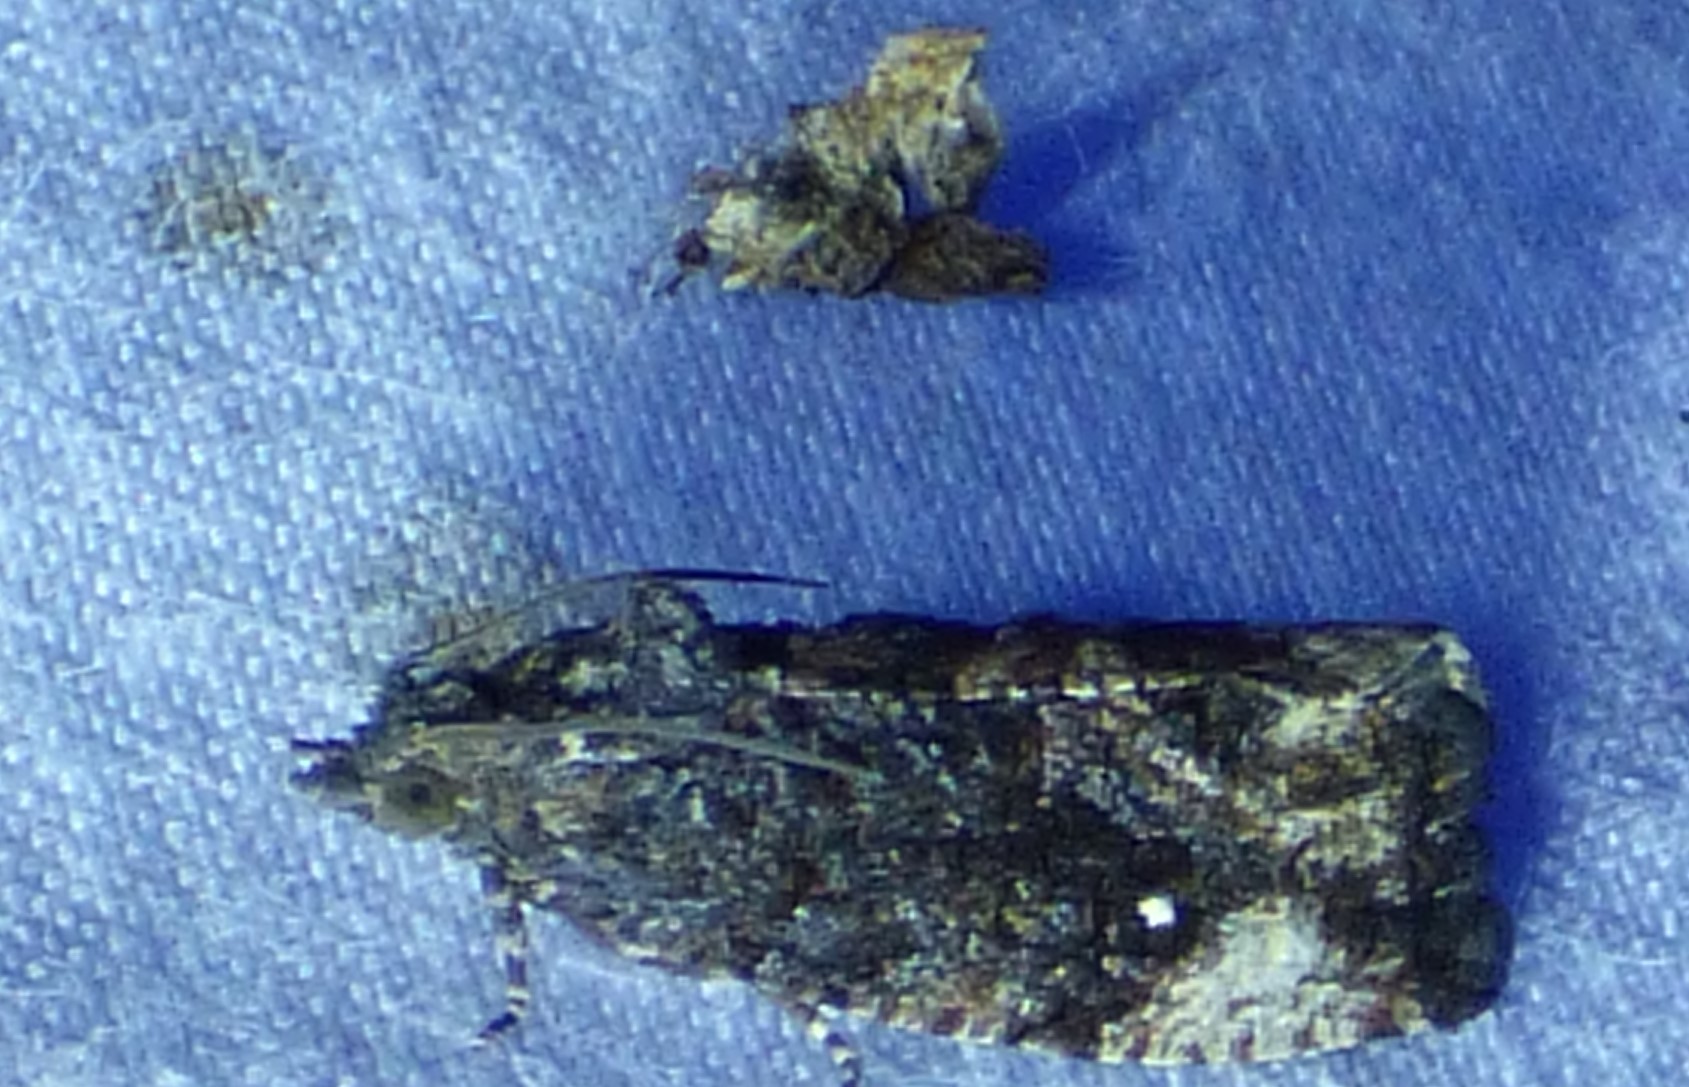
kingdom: Animalia
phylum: Arthropoda
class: Insecta
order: Lepidoptera
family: Tortricidae
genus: Gymnandrosoma
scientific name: Gymnandrosoma punctidiscanum
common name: Dotted ecdytolopha moth
